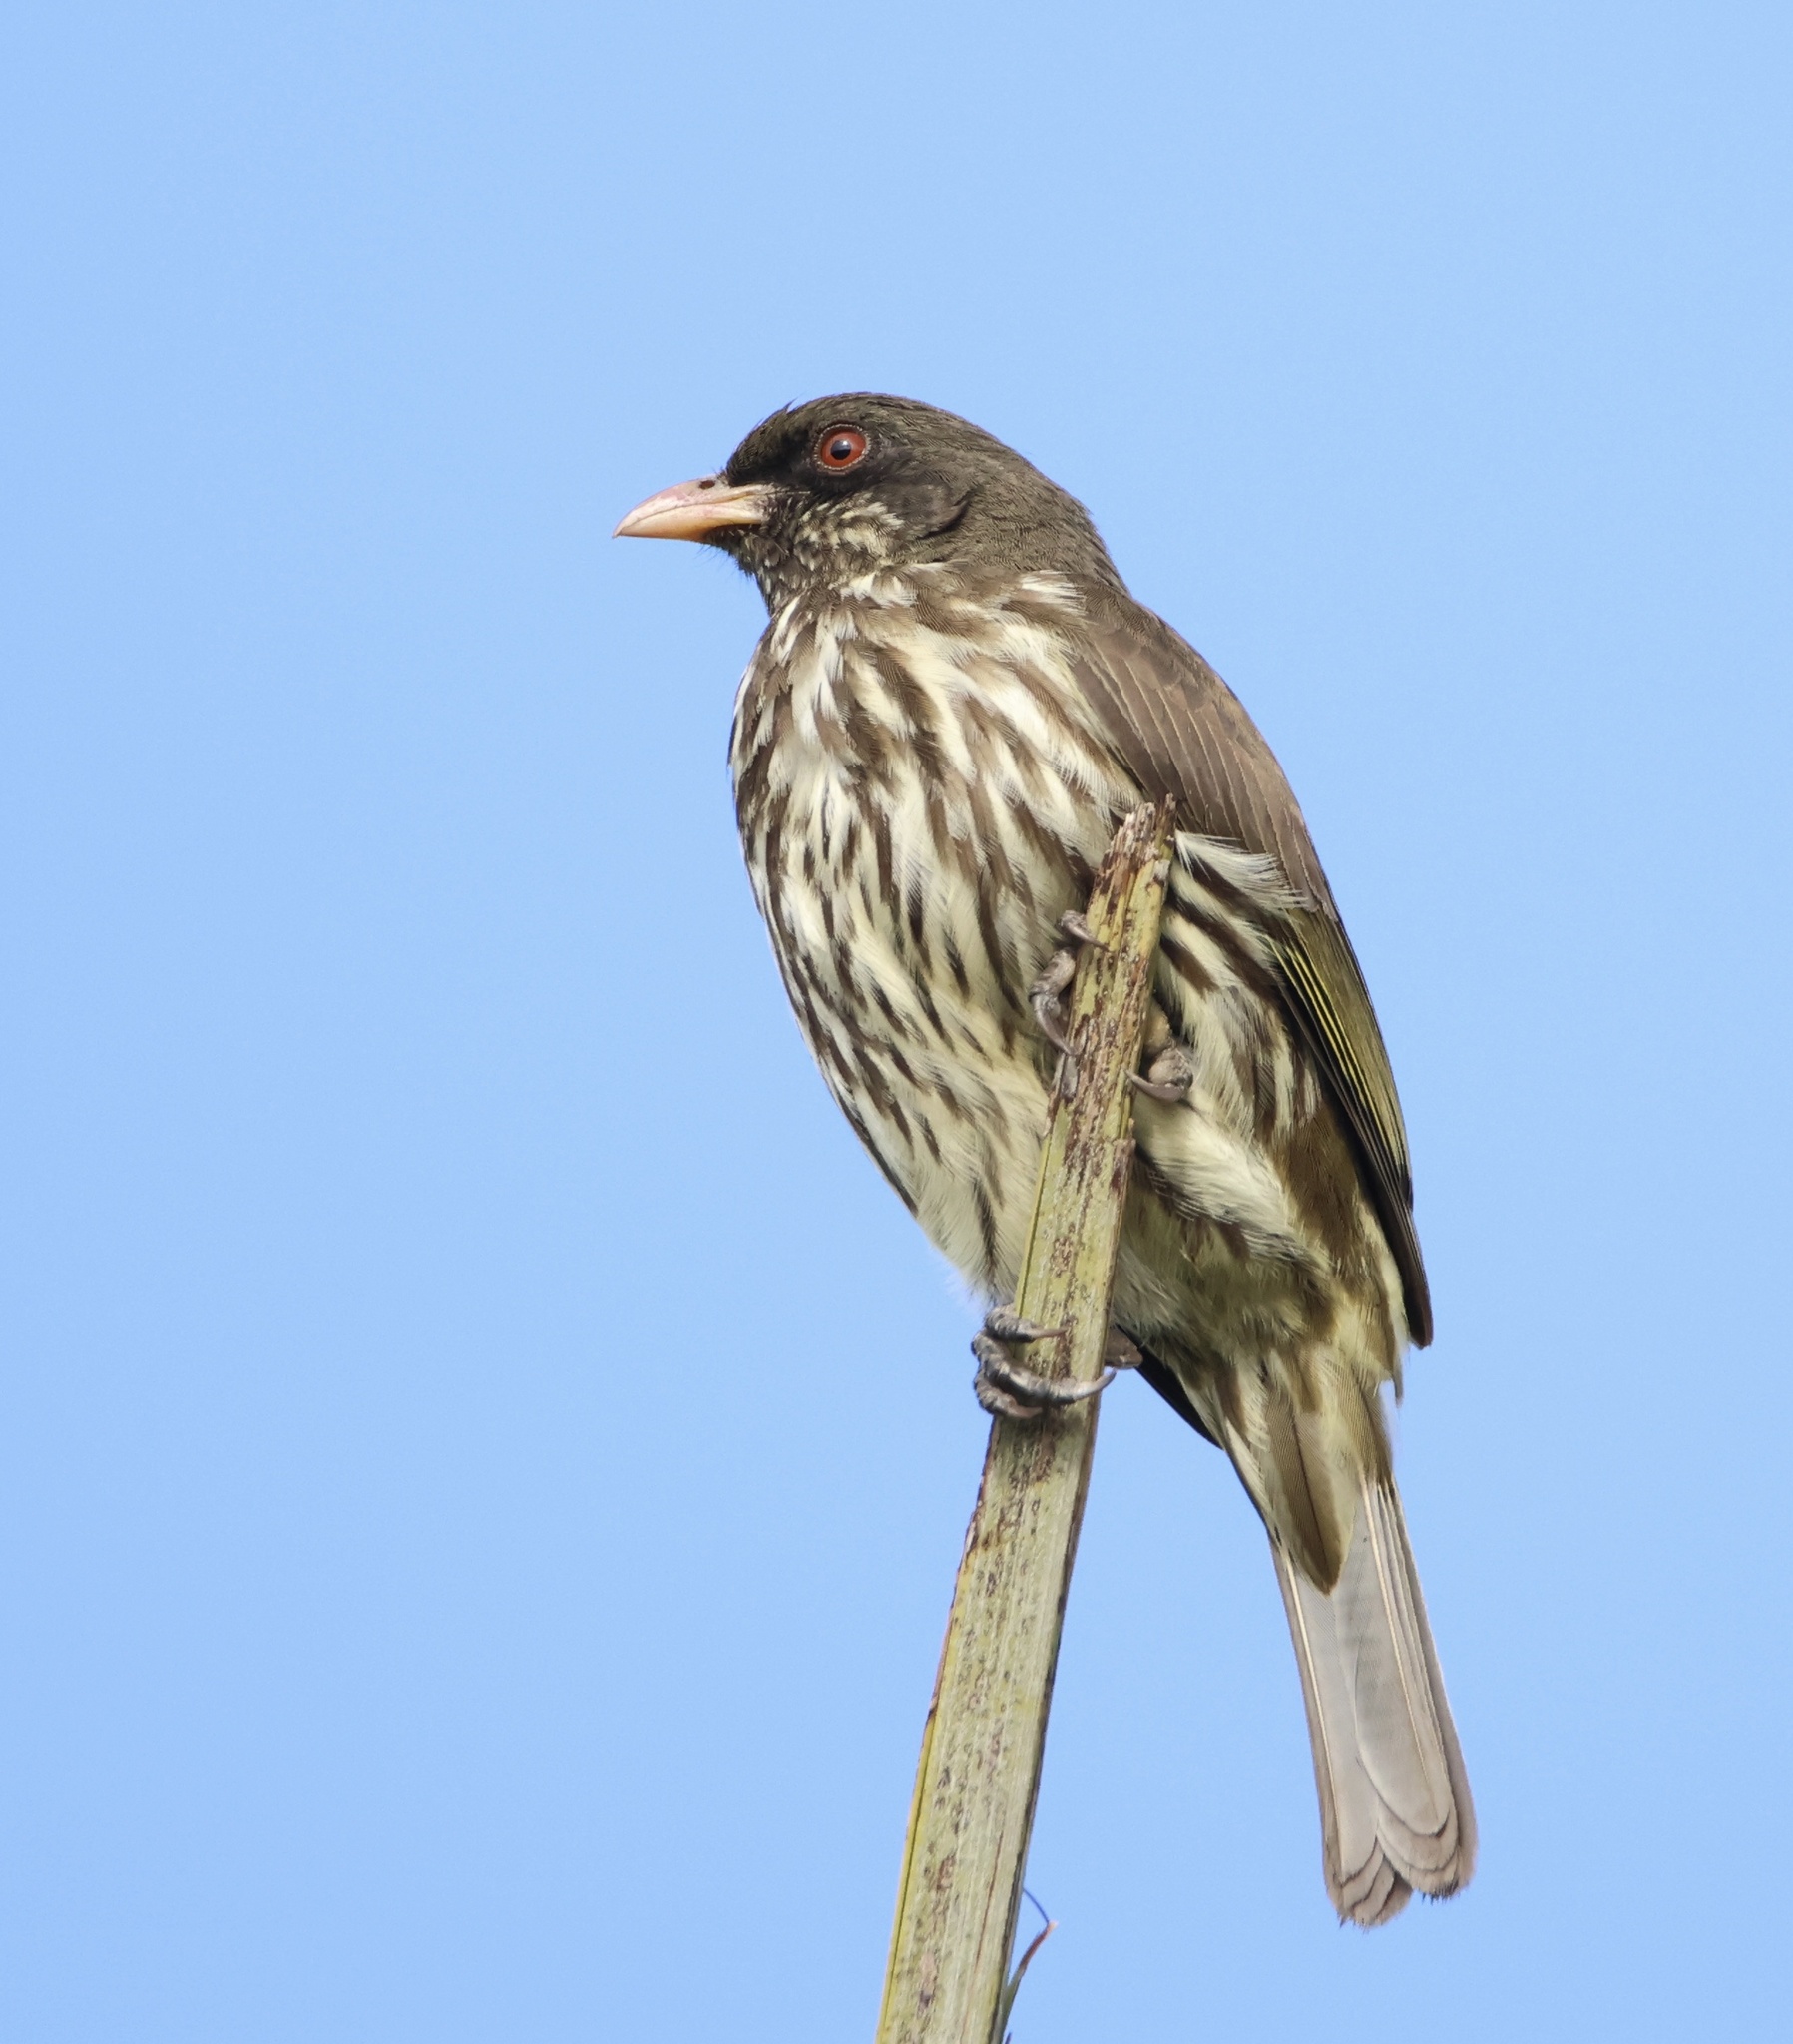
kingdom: Animalia
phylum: Chordata
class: Aves
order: Passeriformes
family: Dulidae
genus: Dulus
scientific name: Dulus dominicus
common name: Palmchat
